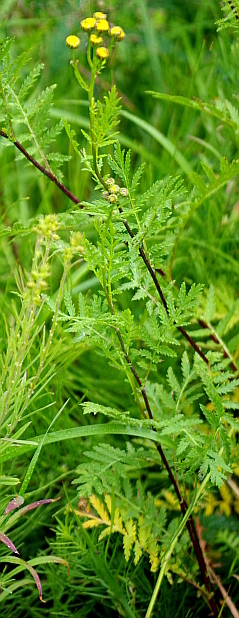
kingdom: Plantae
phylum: Tracheophyta
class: Magnoliopsida
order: Asterales
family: Asteraceae
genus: Tanacetum
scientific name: Tanacetum vulgare
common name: Common tansy
